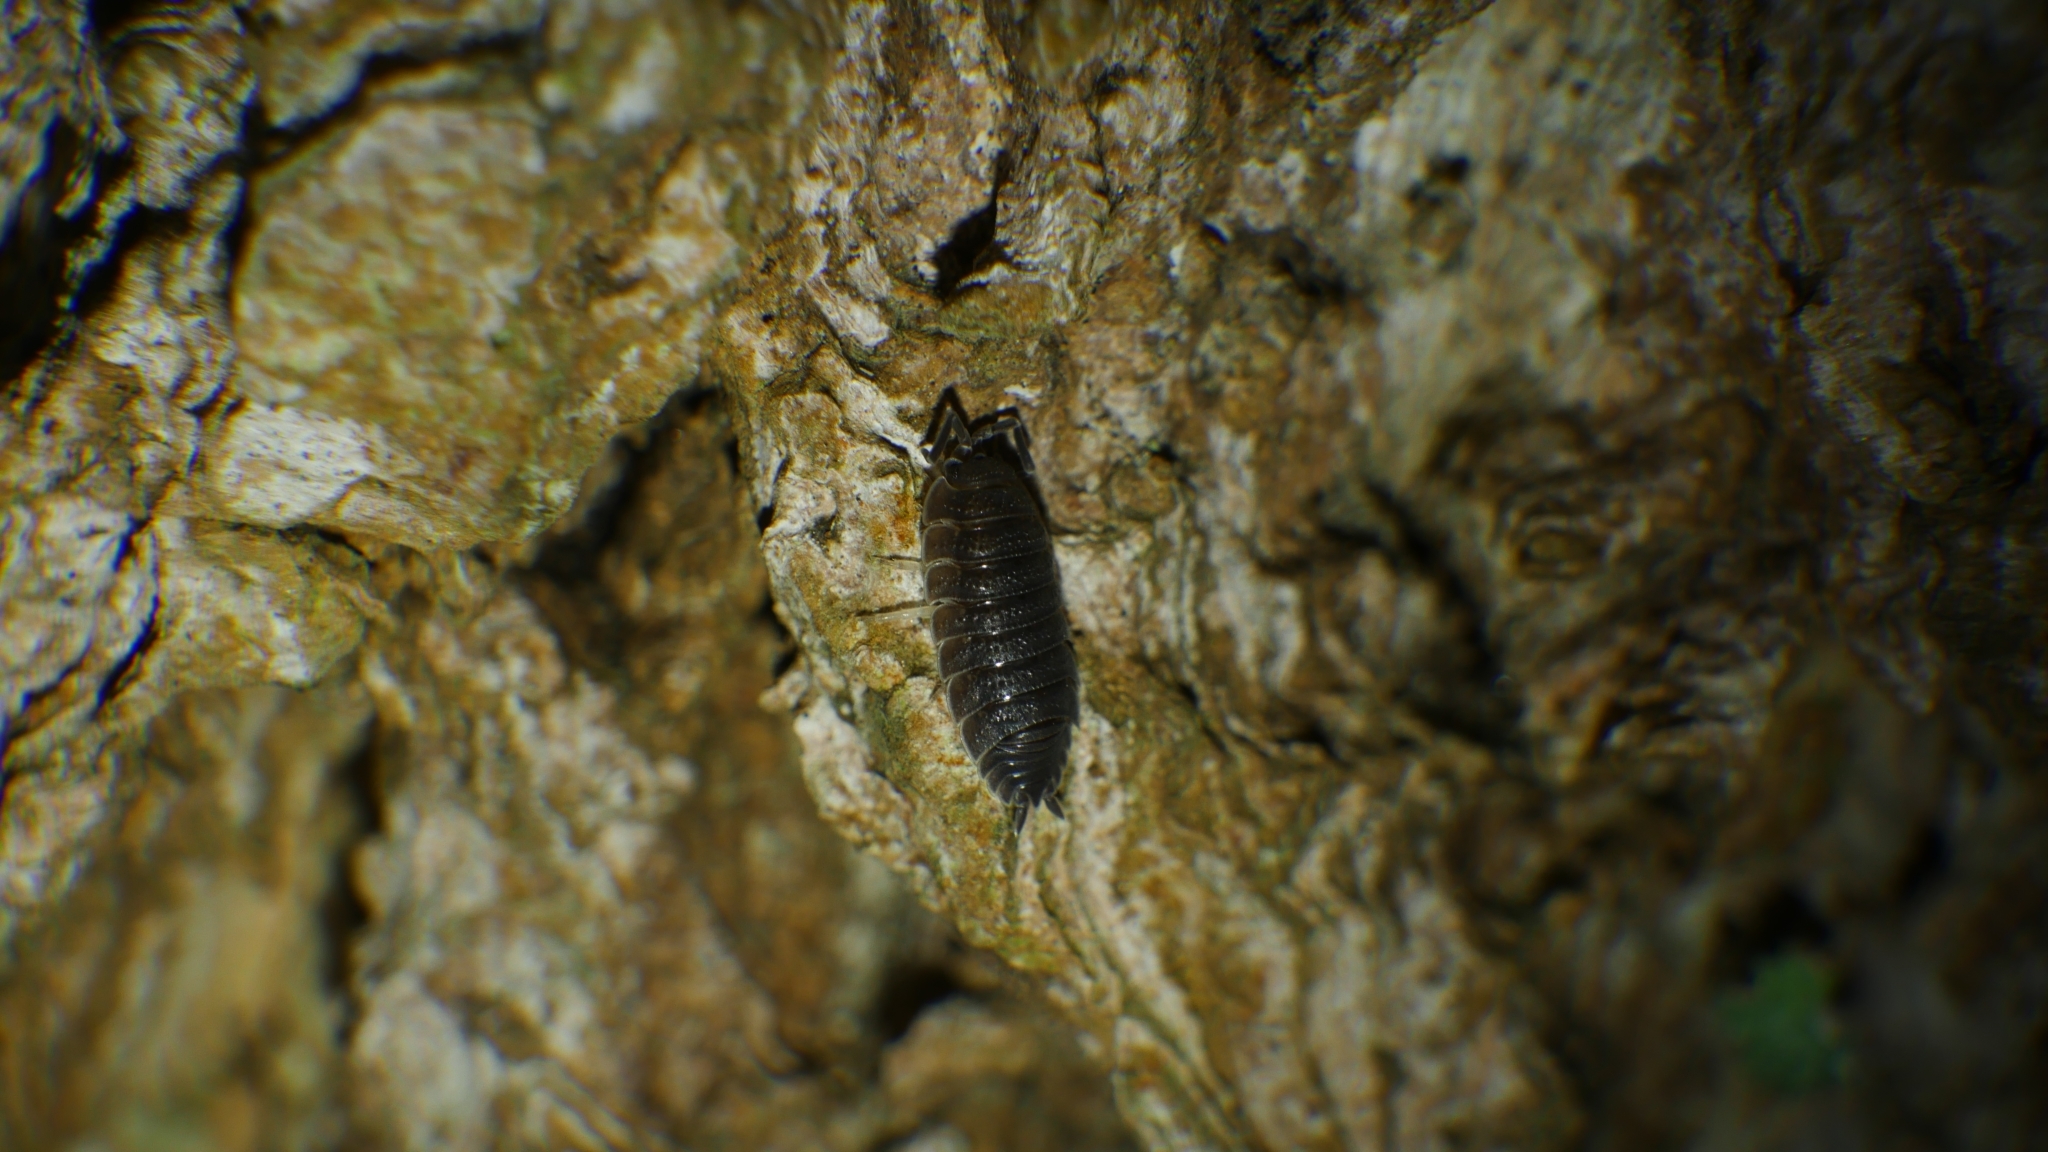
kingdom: Animalia
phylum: Arthropoda
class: Malacostraca
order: Isopoda
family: Porcellionidae
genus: Porcellio
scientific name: Porcellio scaber
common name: Common rough woodlouse
